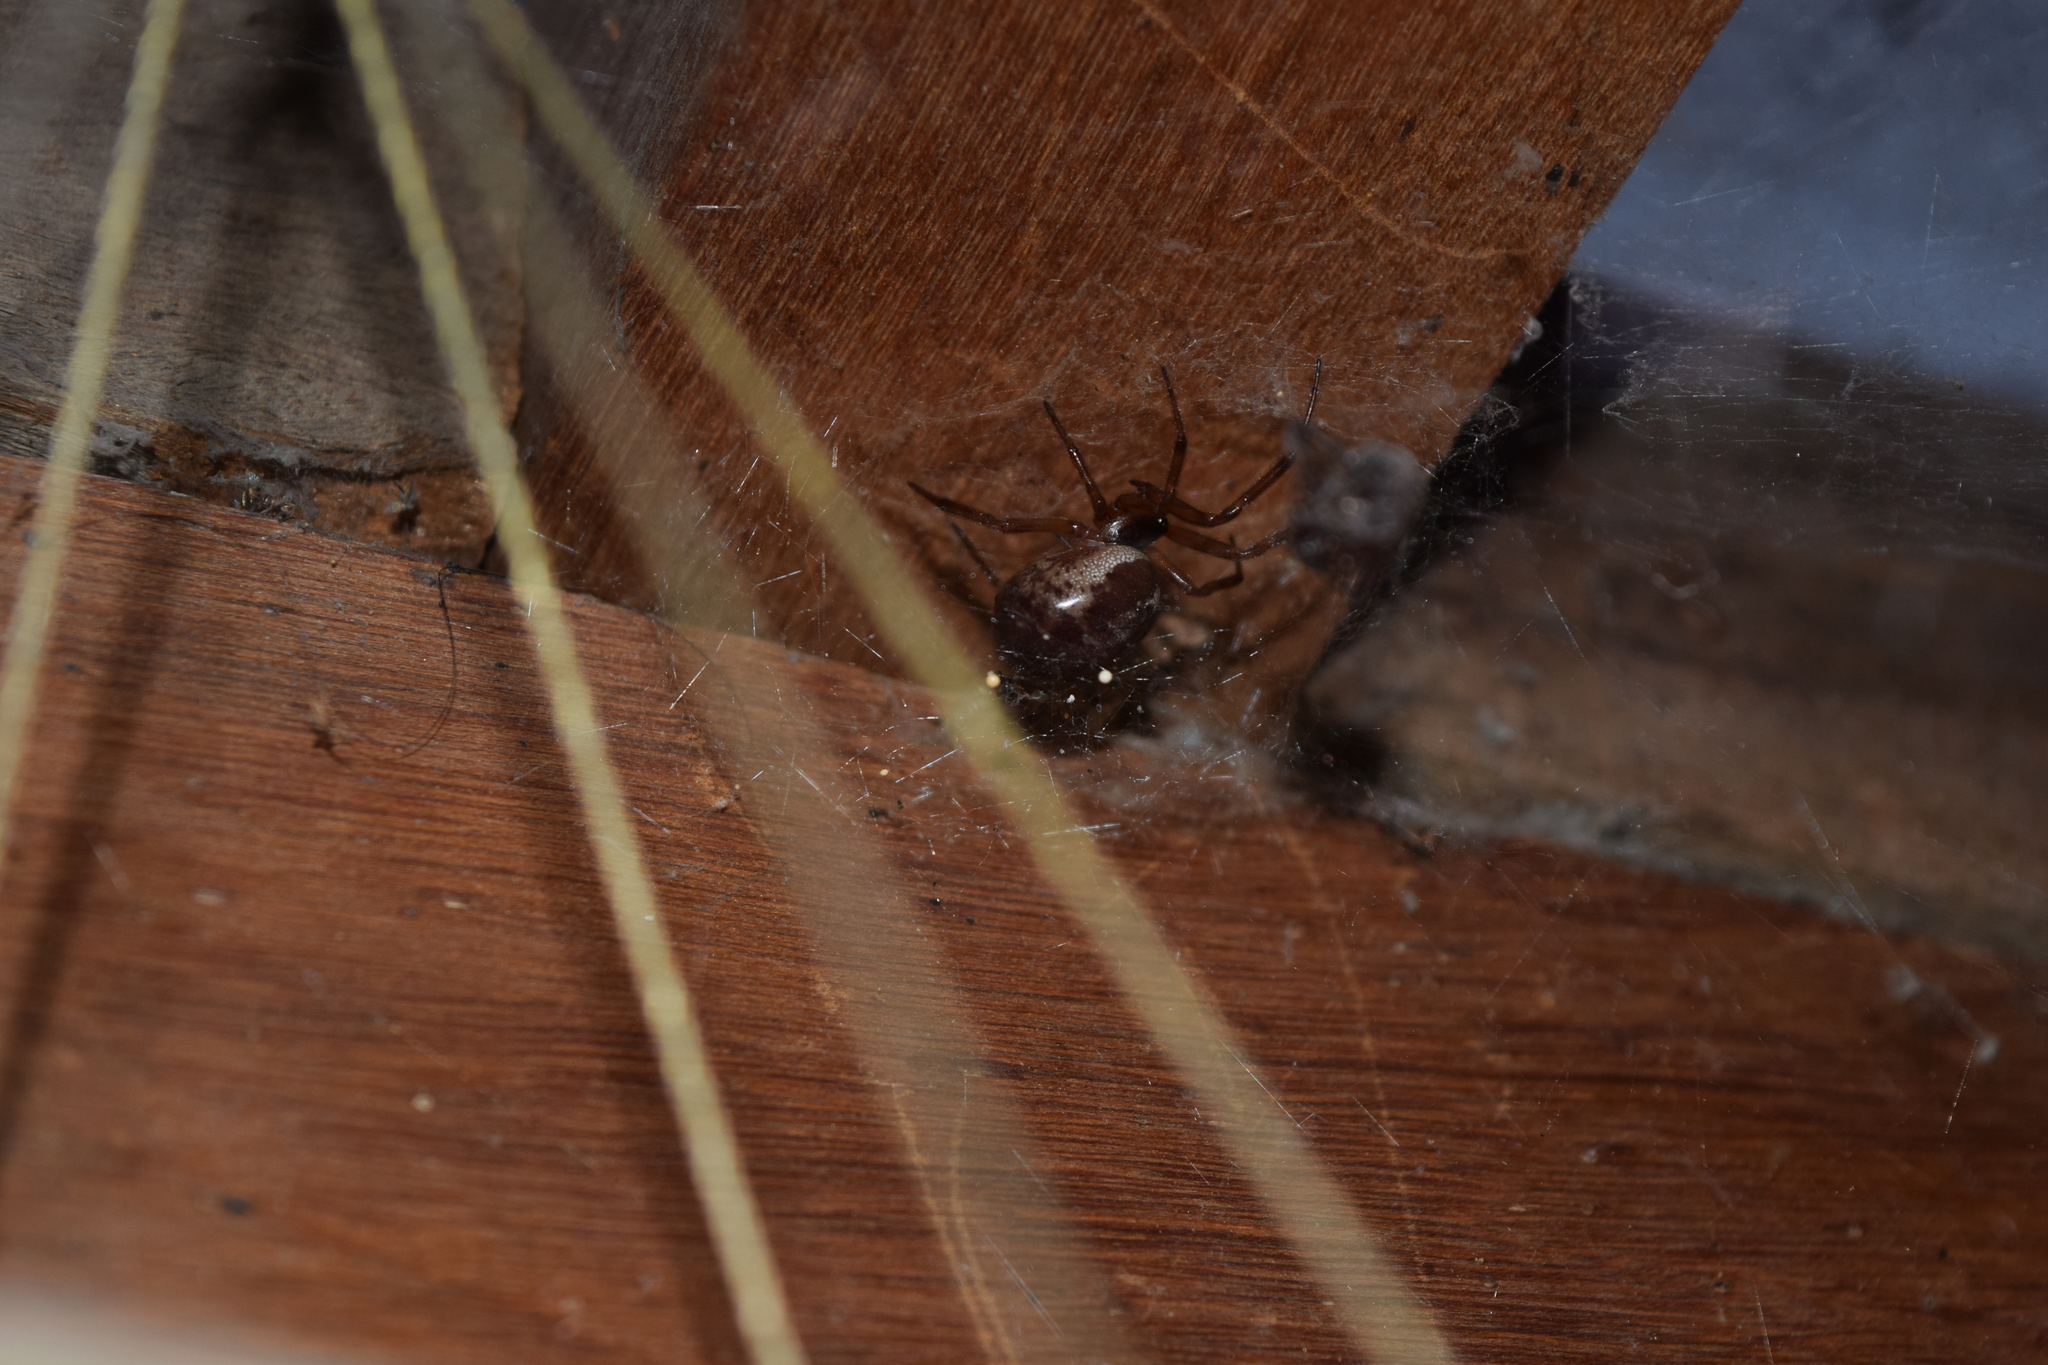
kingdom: Animalia
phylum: Arthropoda
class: Arachnida
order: Araneae
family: Theridiidae
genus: Steatoda
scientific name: Steatoda nobilis
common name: Cobweb weaver
